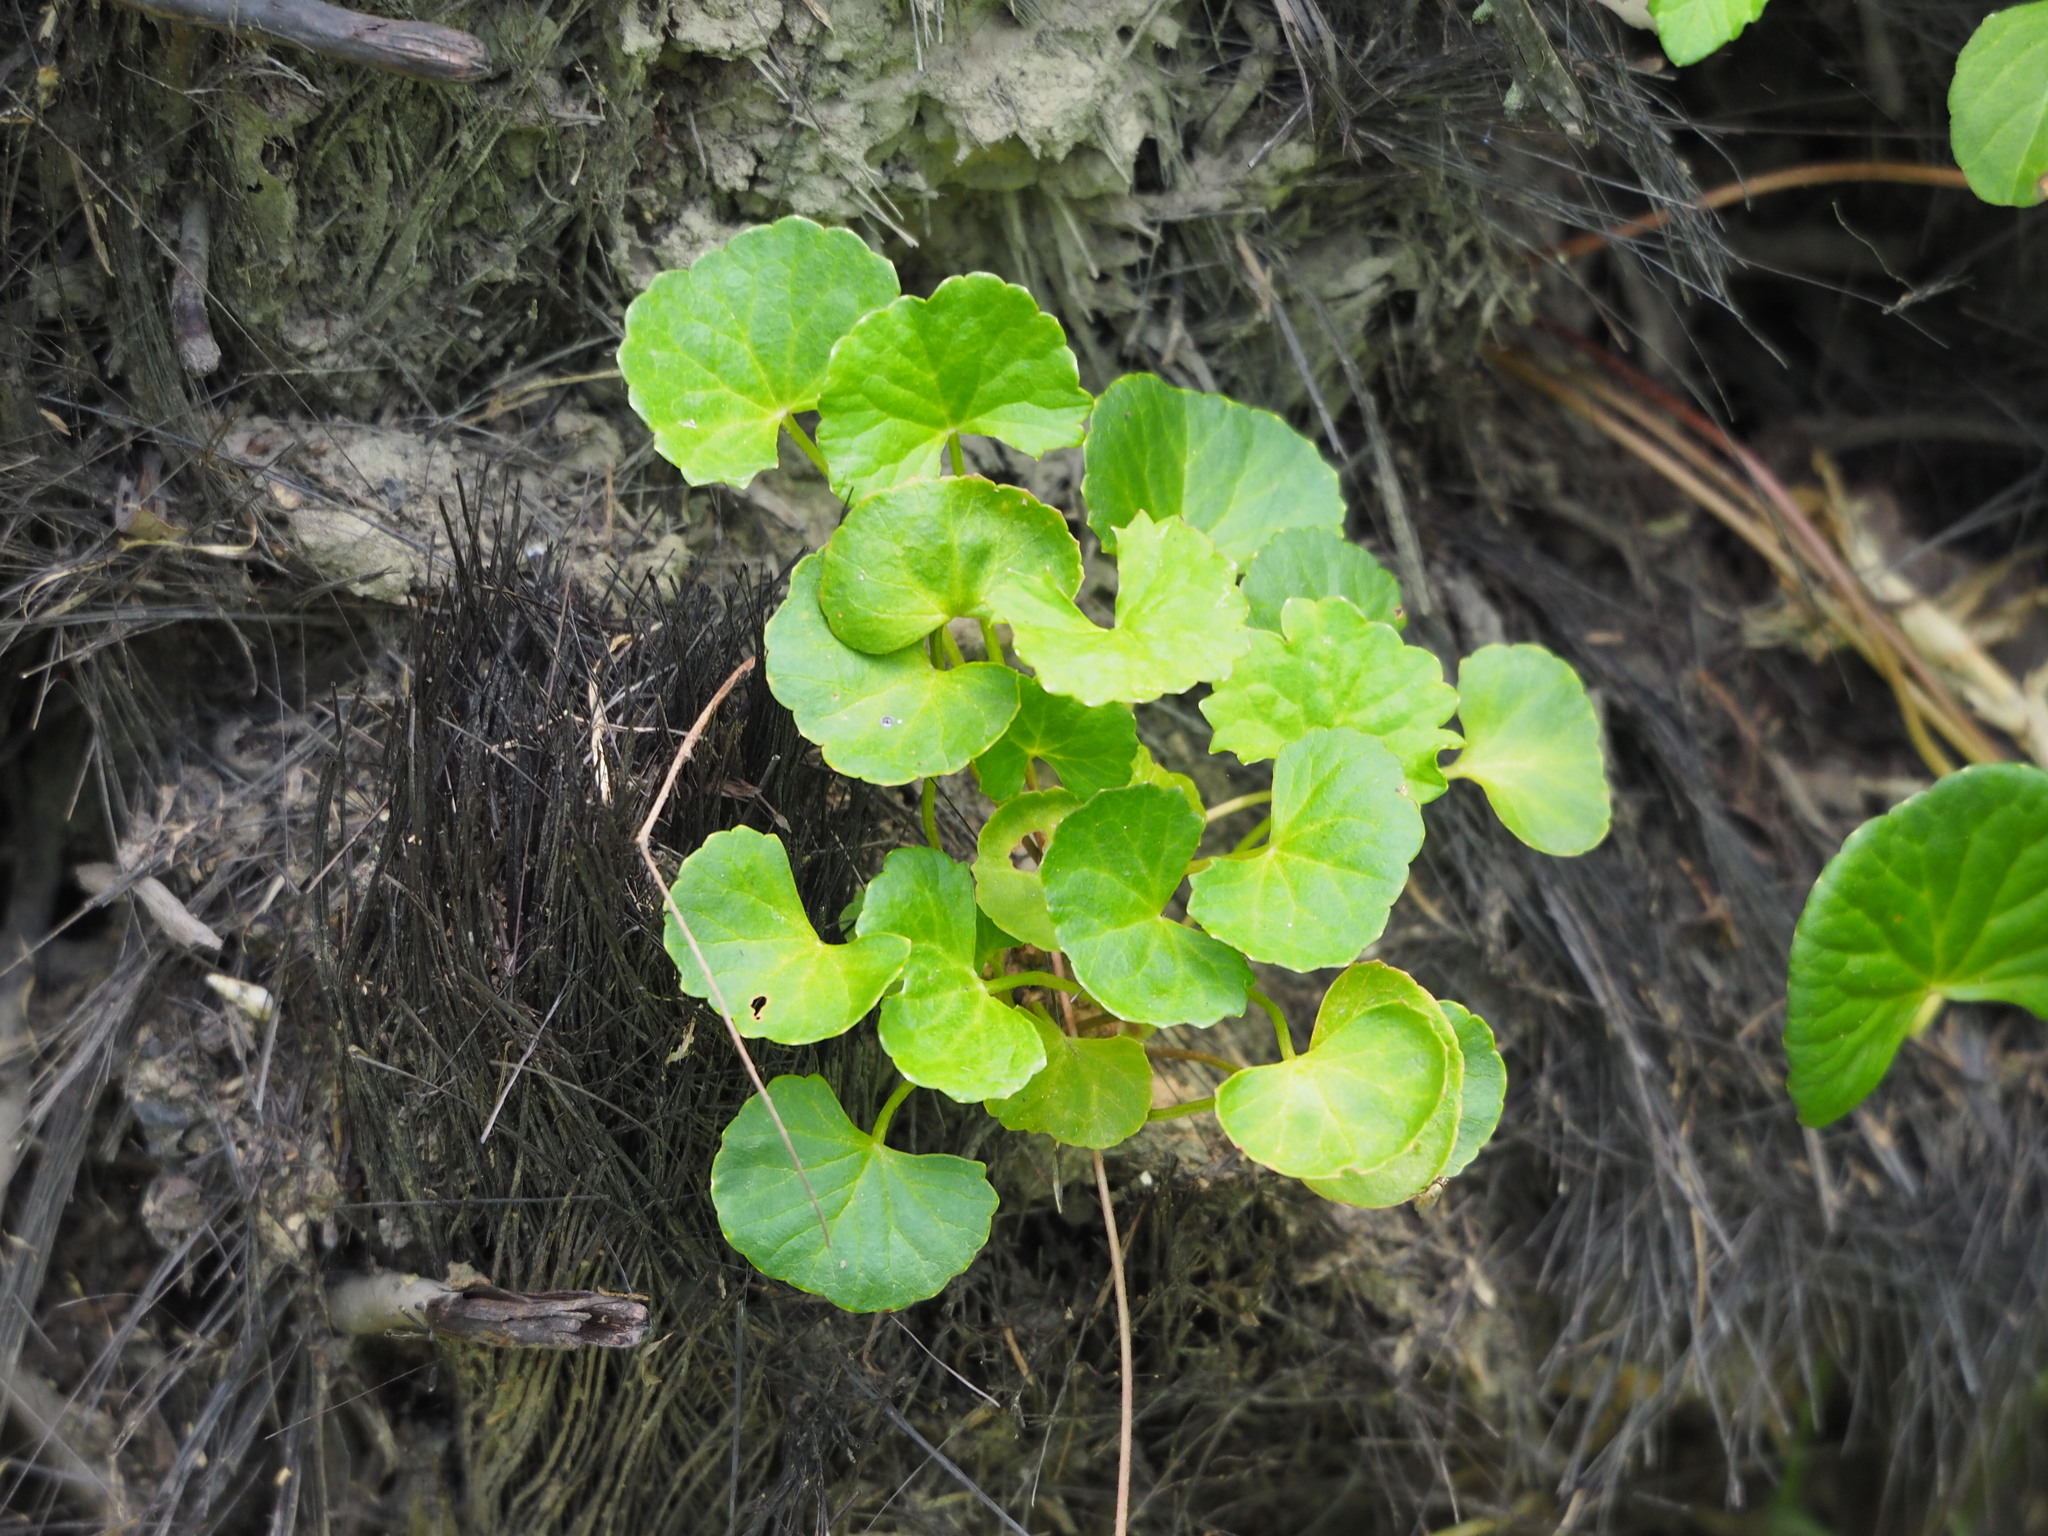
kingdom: Plantae
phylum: Tracheophyta
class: Magnoliopsida
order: Apiales
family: Apiaceae
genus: Centella
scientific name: Centella asiatica
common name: Spadeleaf
